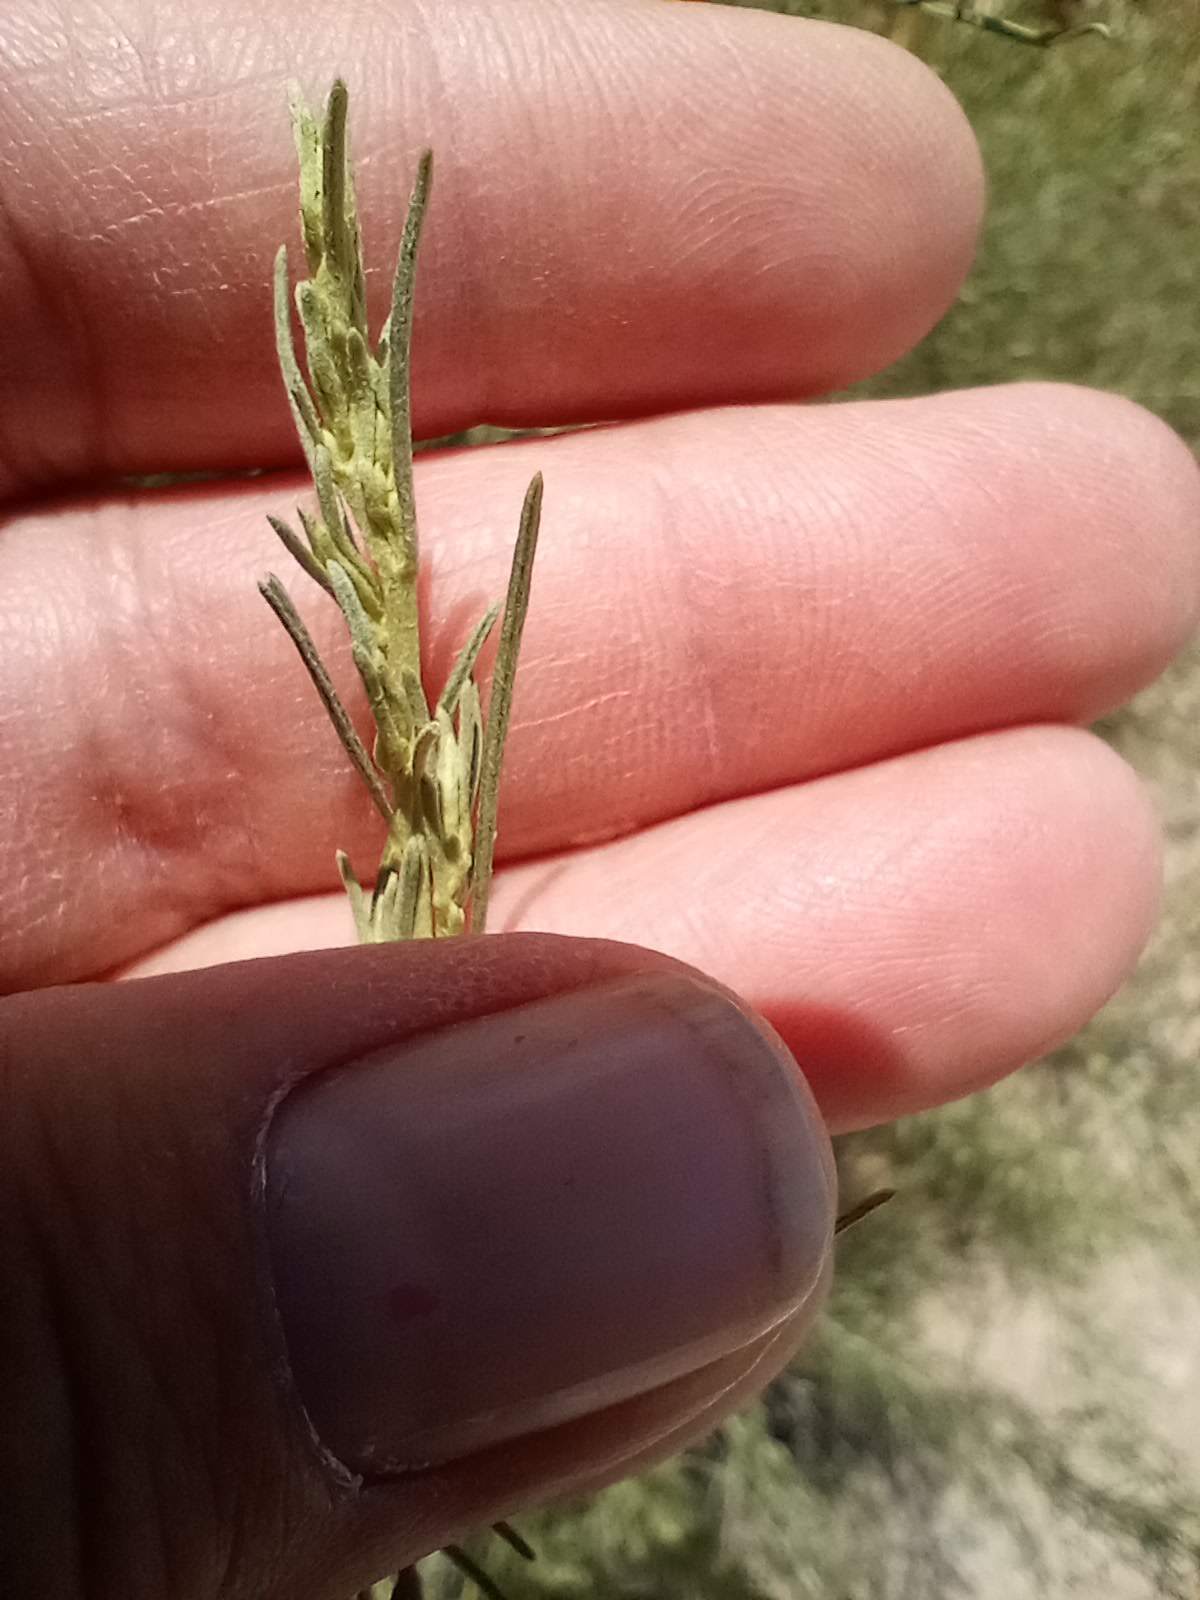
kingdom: Plantae
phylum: Tracheophyta
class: Magnoliopsida
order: Asterales
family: Asteraceae
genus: Artemisia
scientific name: Artemisia californica
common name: California sagebrush
